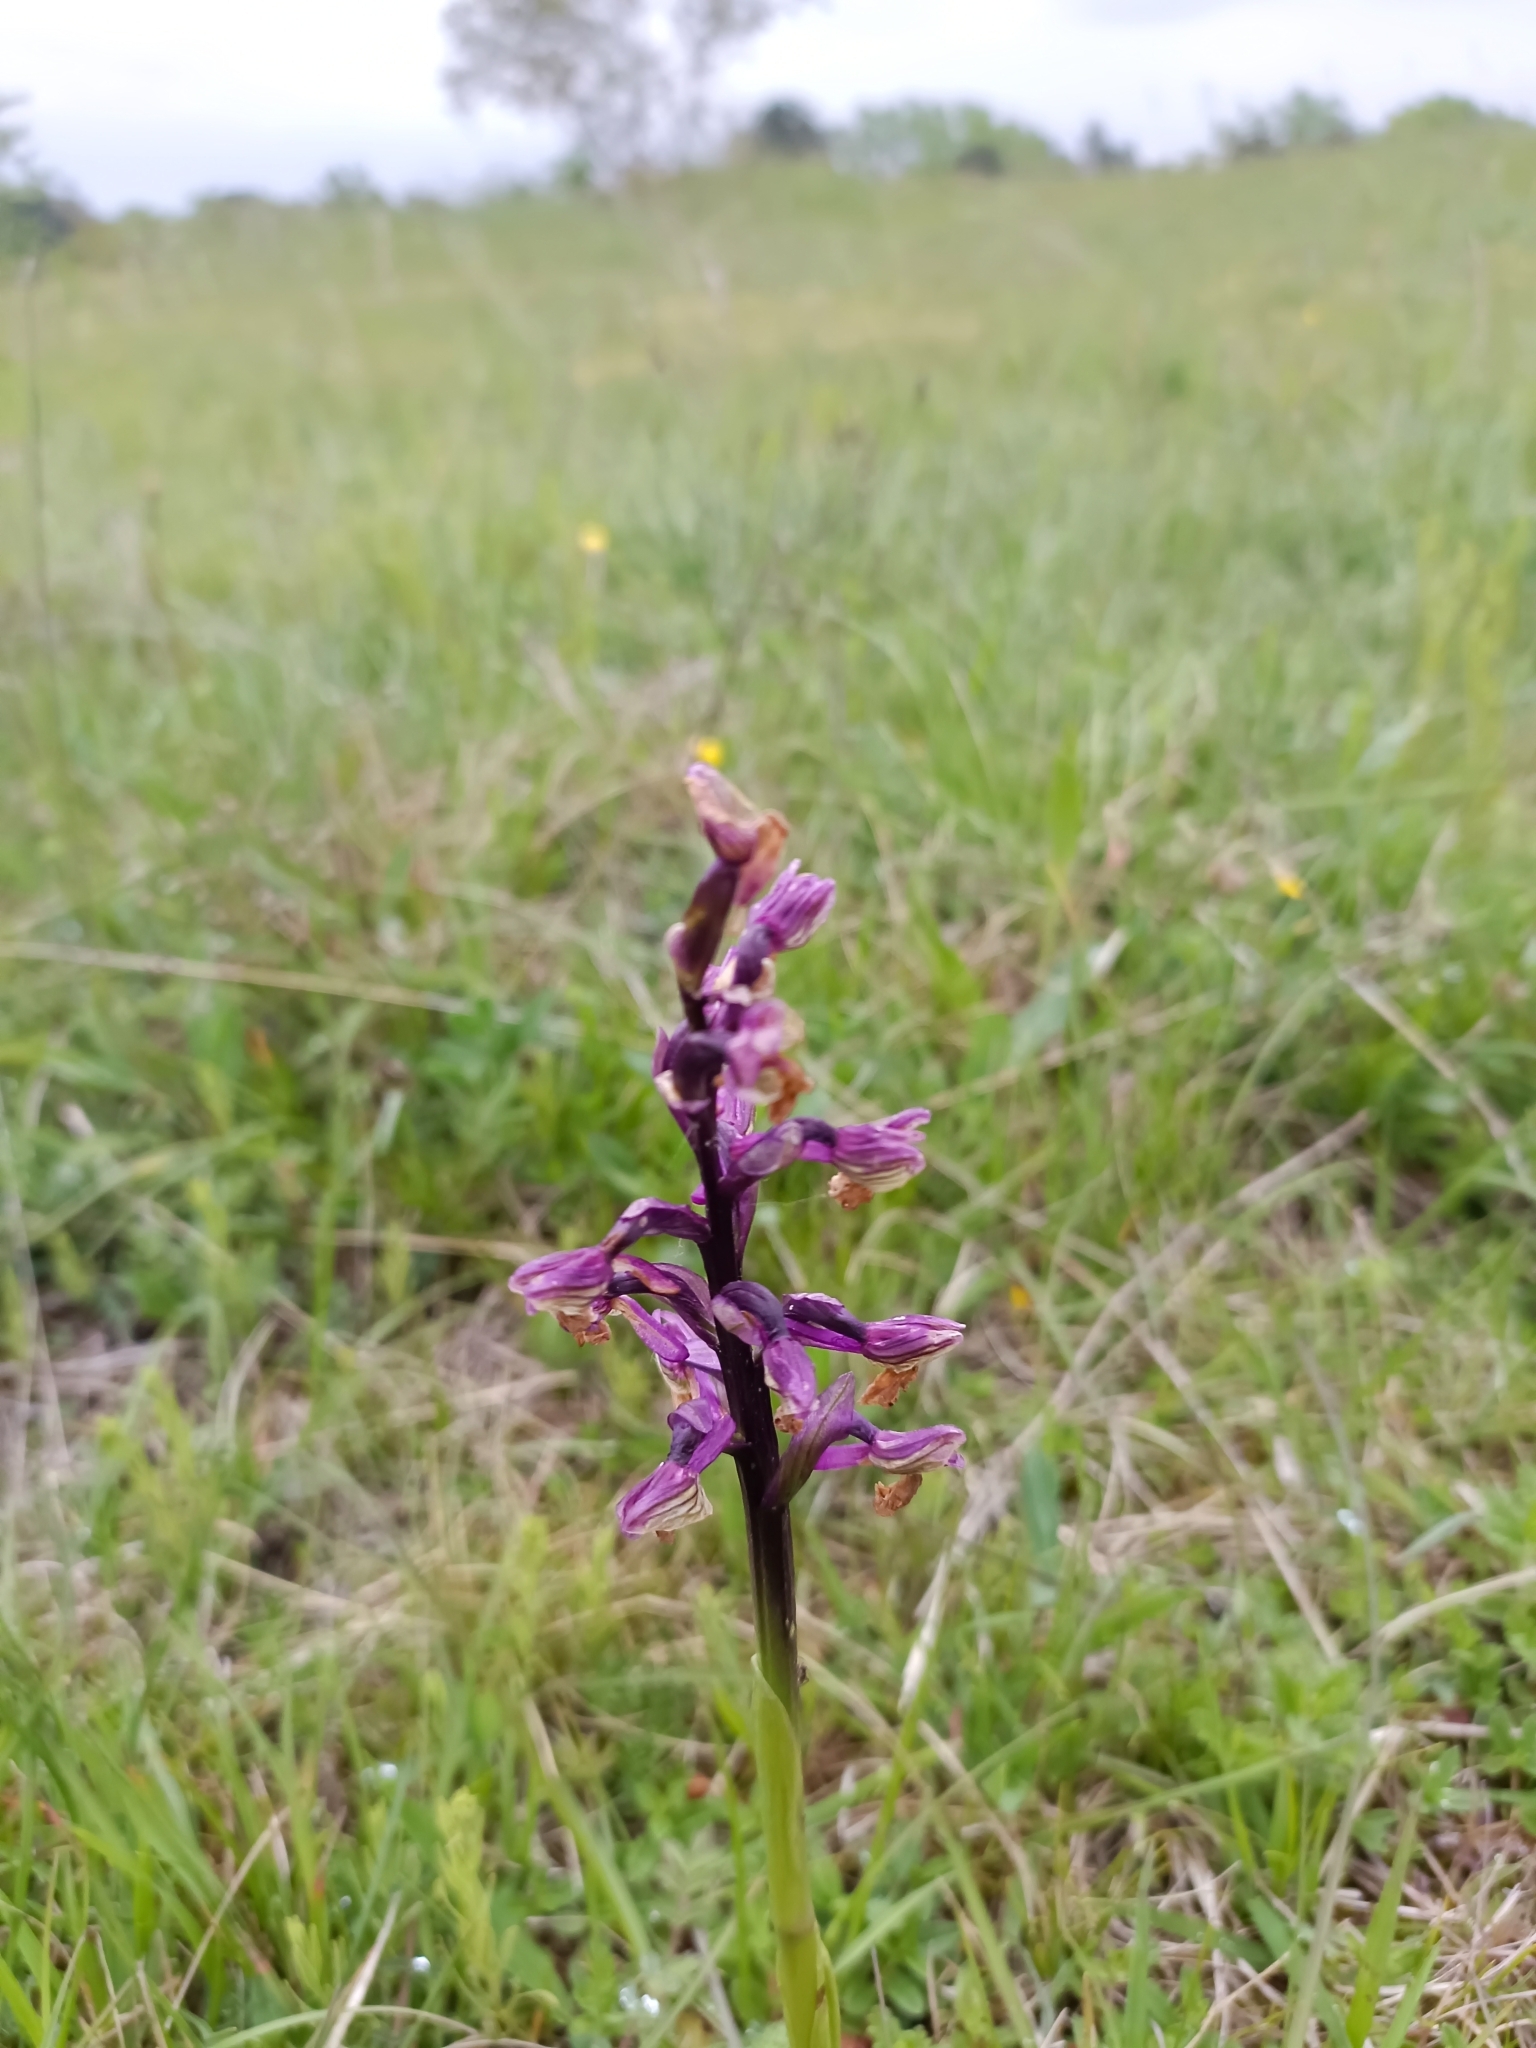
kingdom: Plantae
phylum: Tracheophyta
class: Liliopsida
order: Asparagales
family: Orchidaceae
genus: Anacamptis
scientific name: Anacamptis morio
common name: Green-winged orchid
